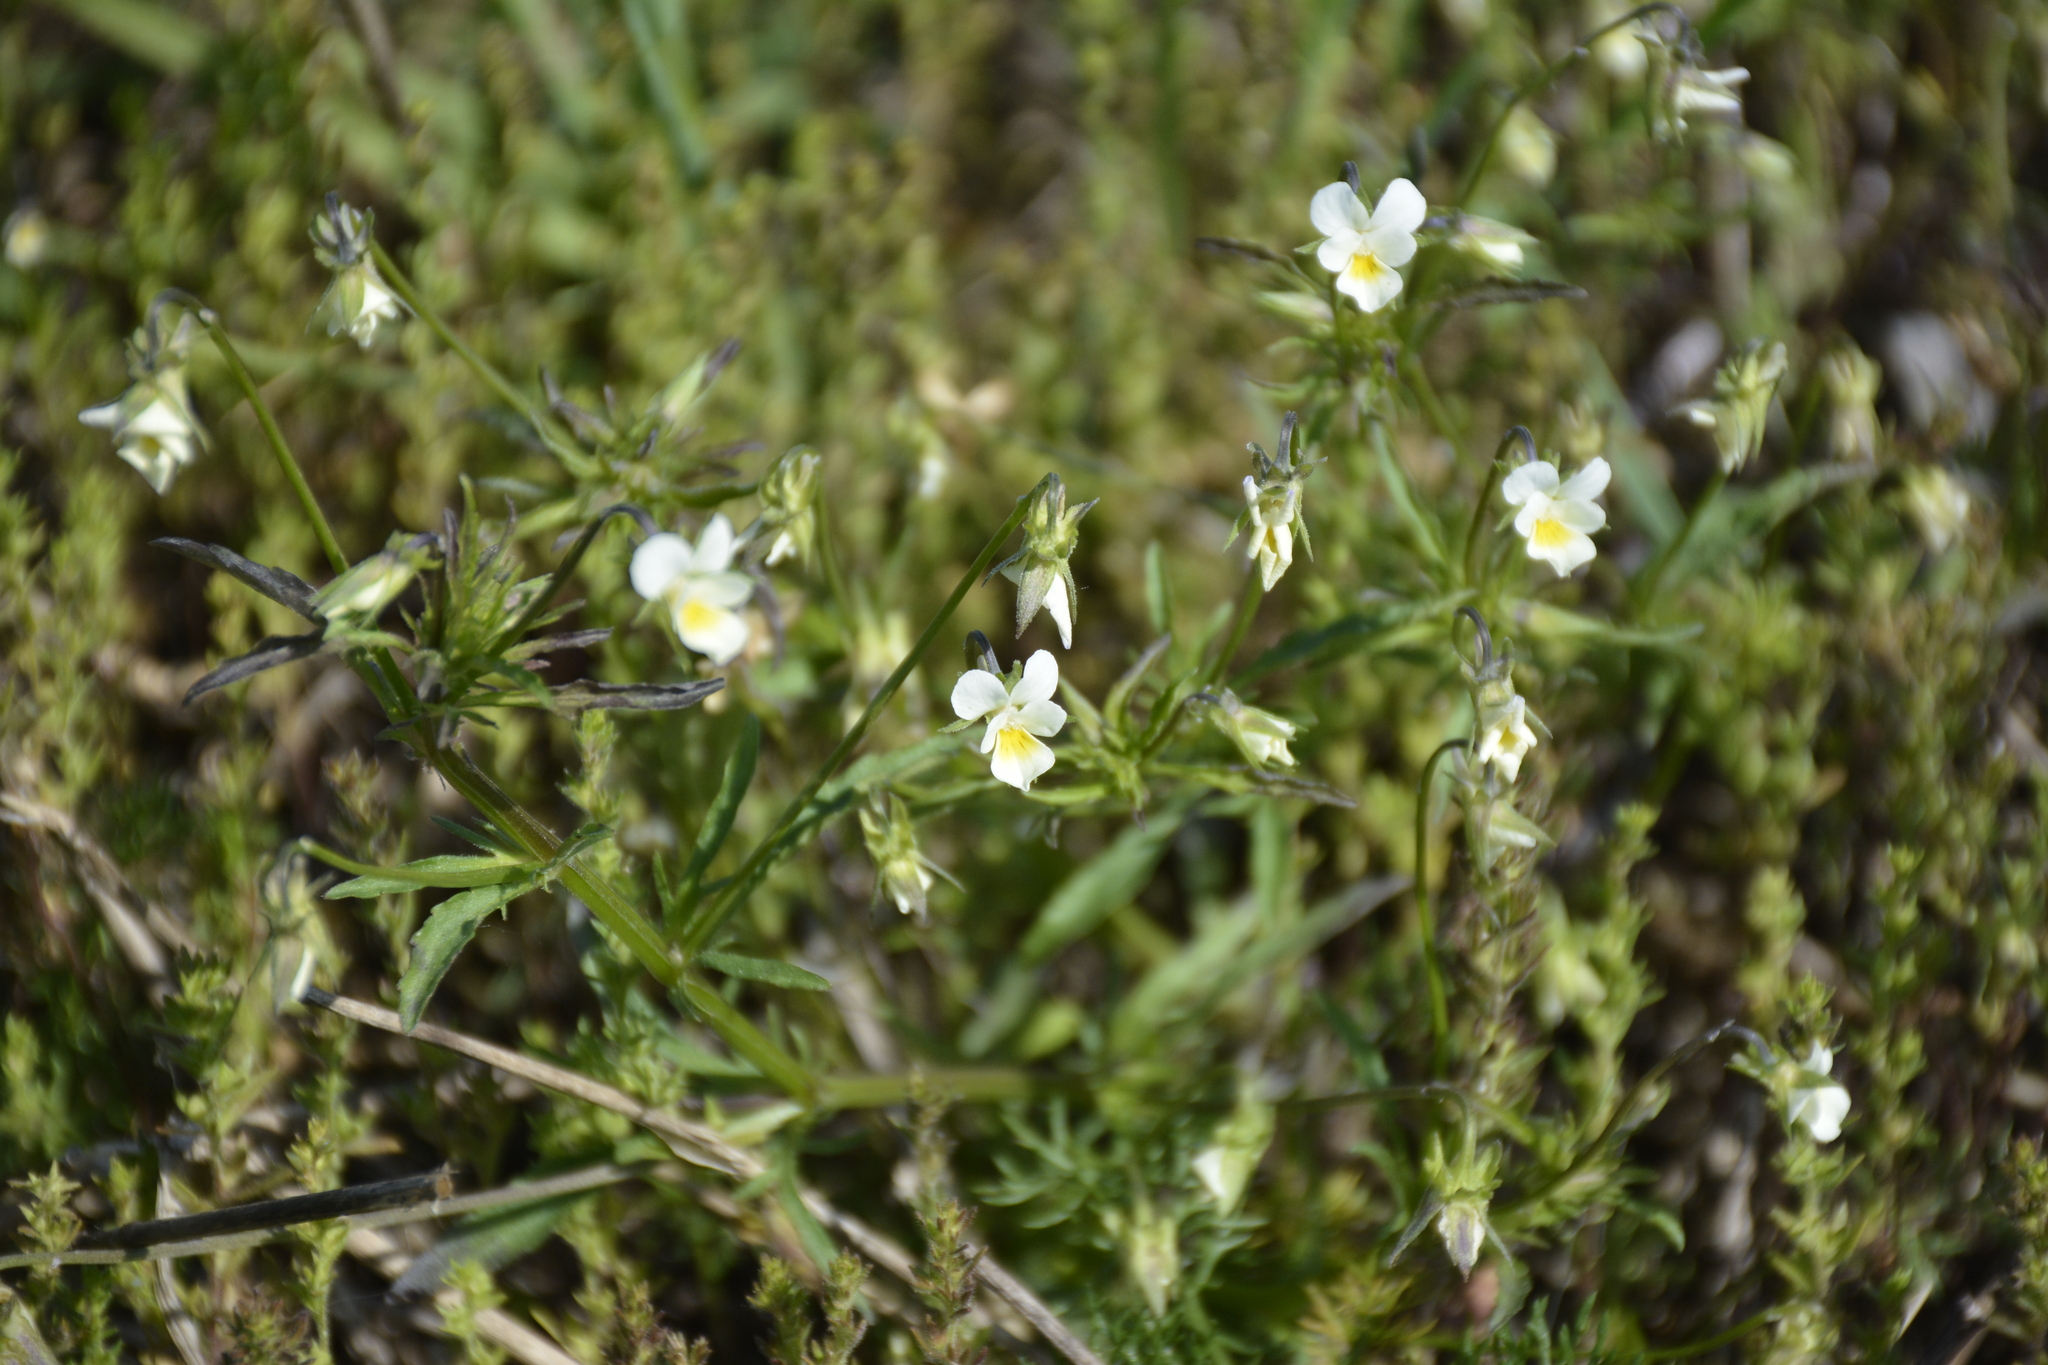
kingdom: Plantae
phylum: Tracheophyta
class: Magnoliopsida
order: Malpighiales
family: Violaceae
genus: Viola
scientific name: Viola arvensis
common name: Field pansy
